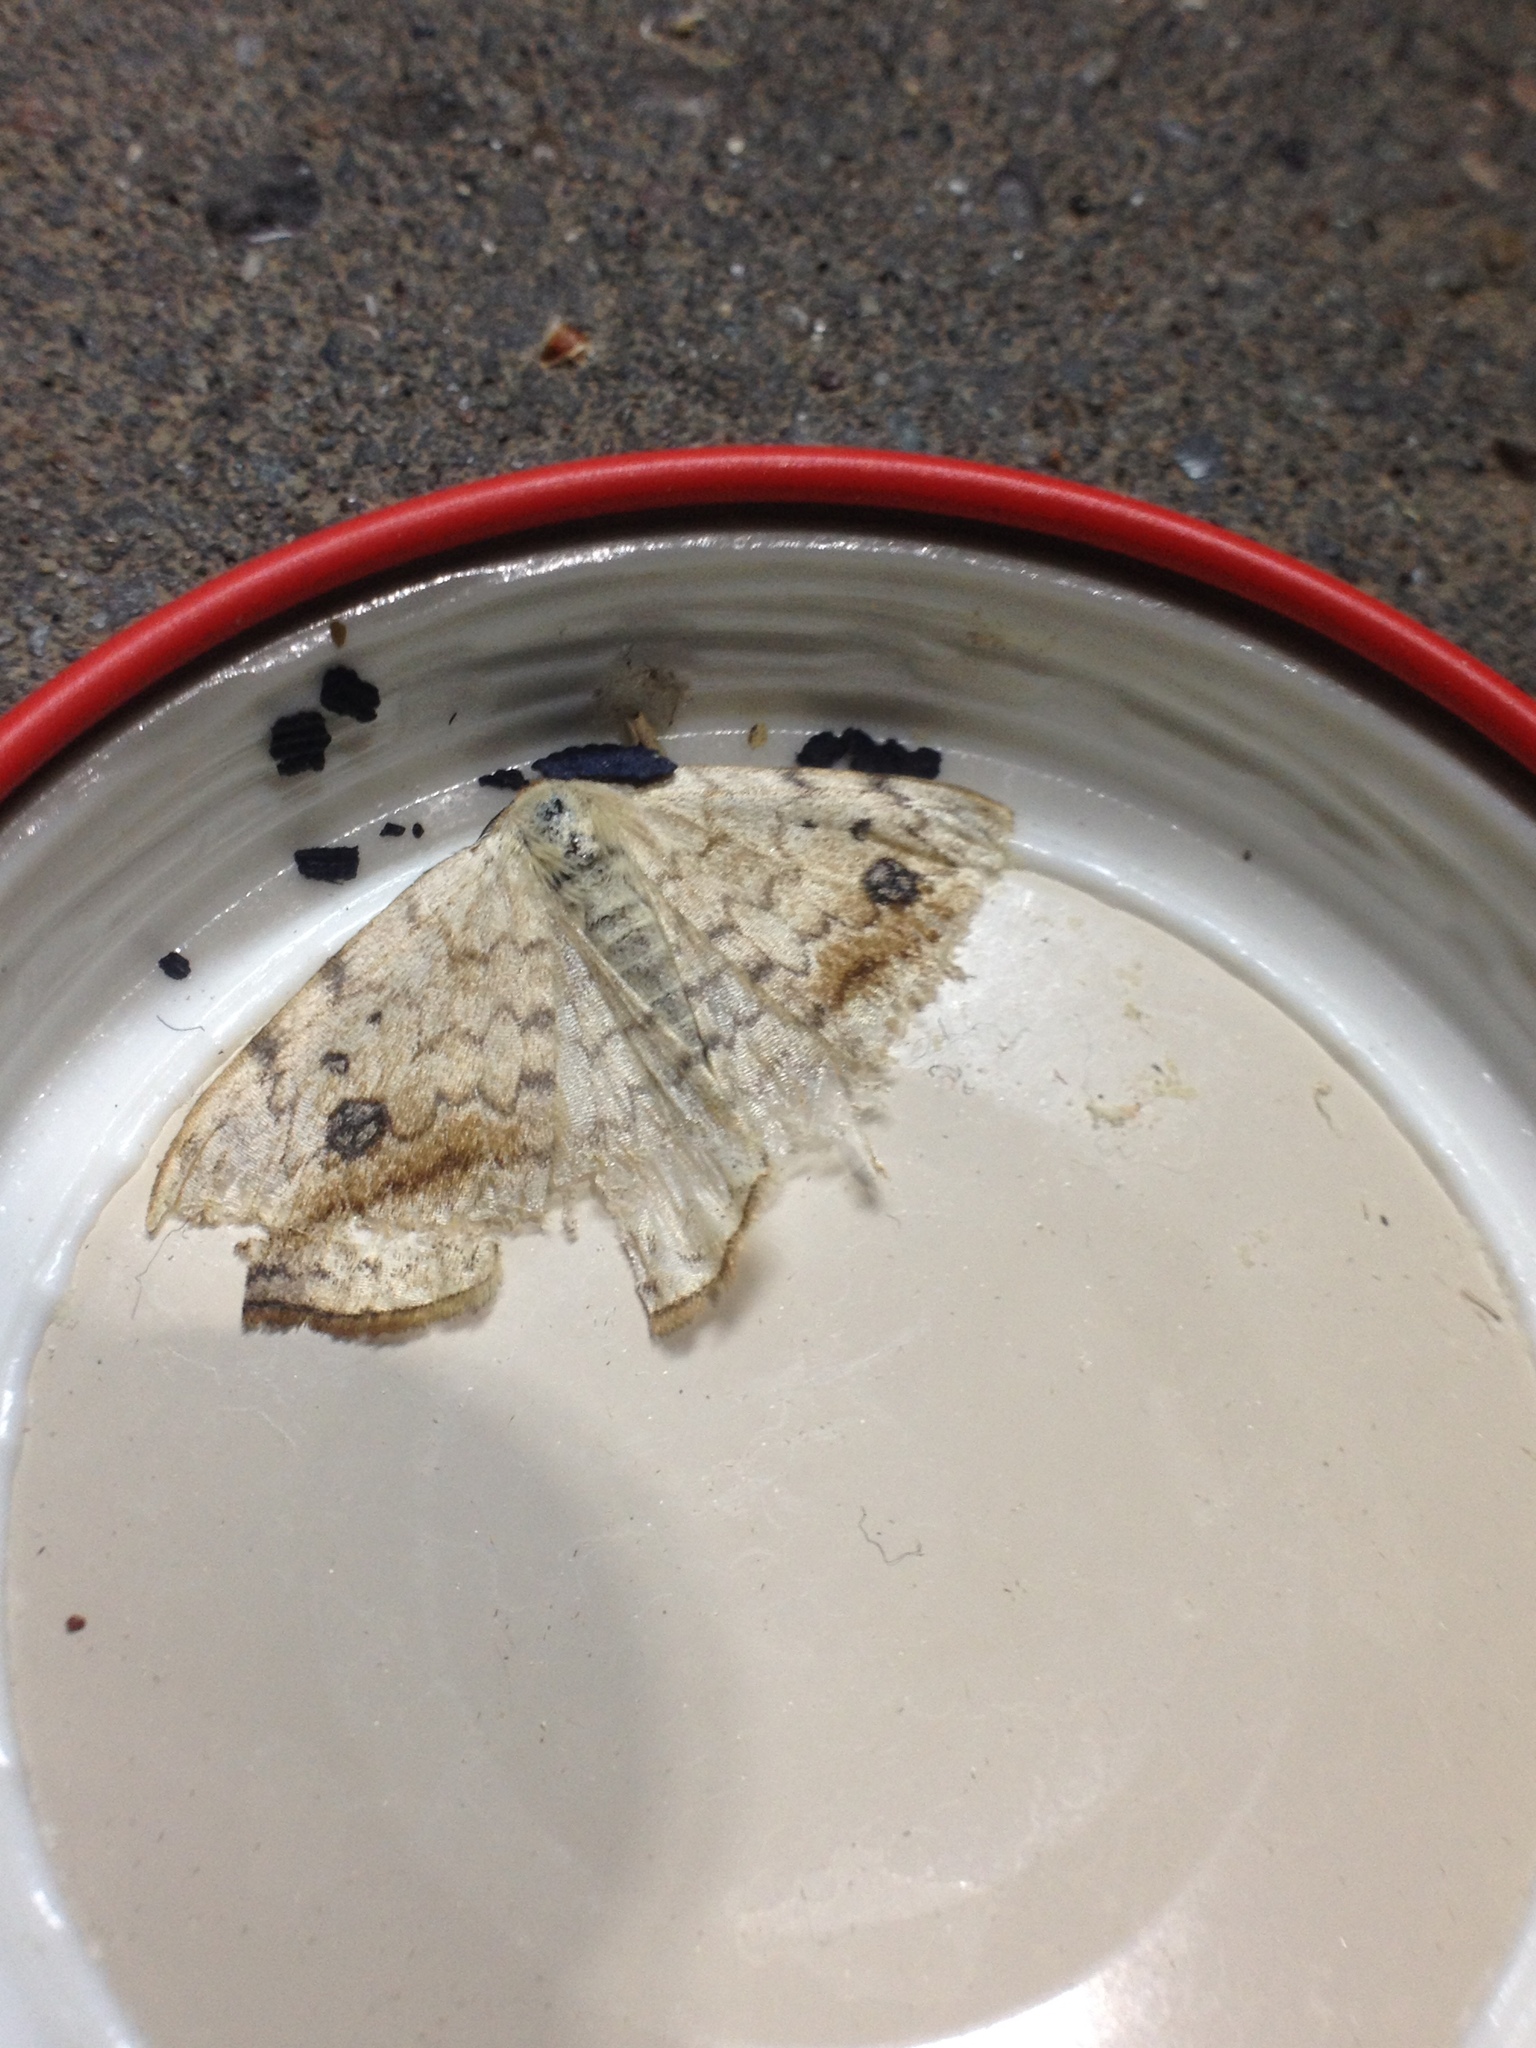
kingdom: Animalia
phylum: Arthropoda
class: Insecta
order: Lepidoptera
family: Drepanidae
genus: Drepana
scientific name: Drepana falcataria
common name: Pebble hook-tip
